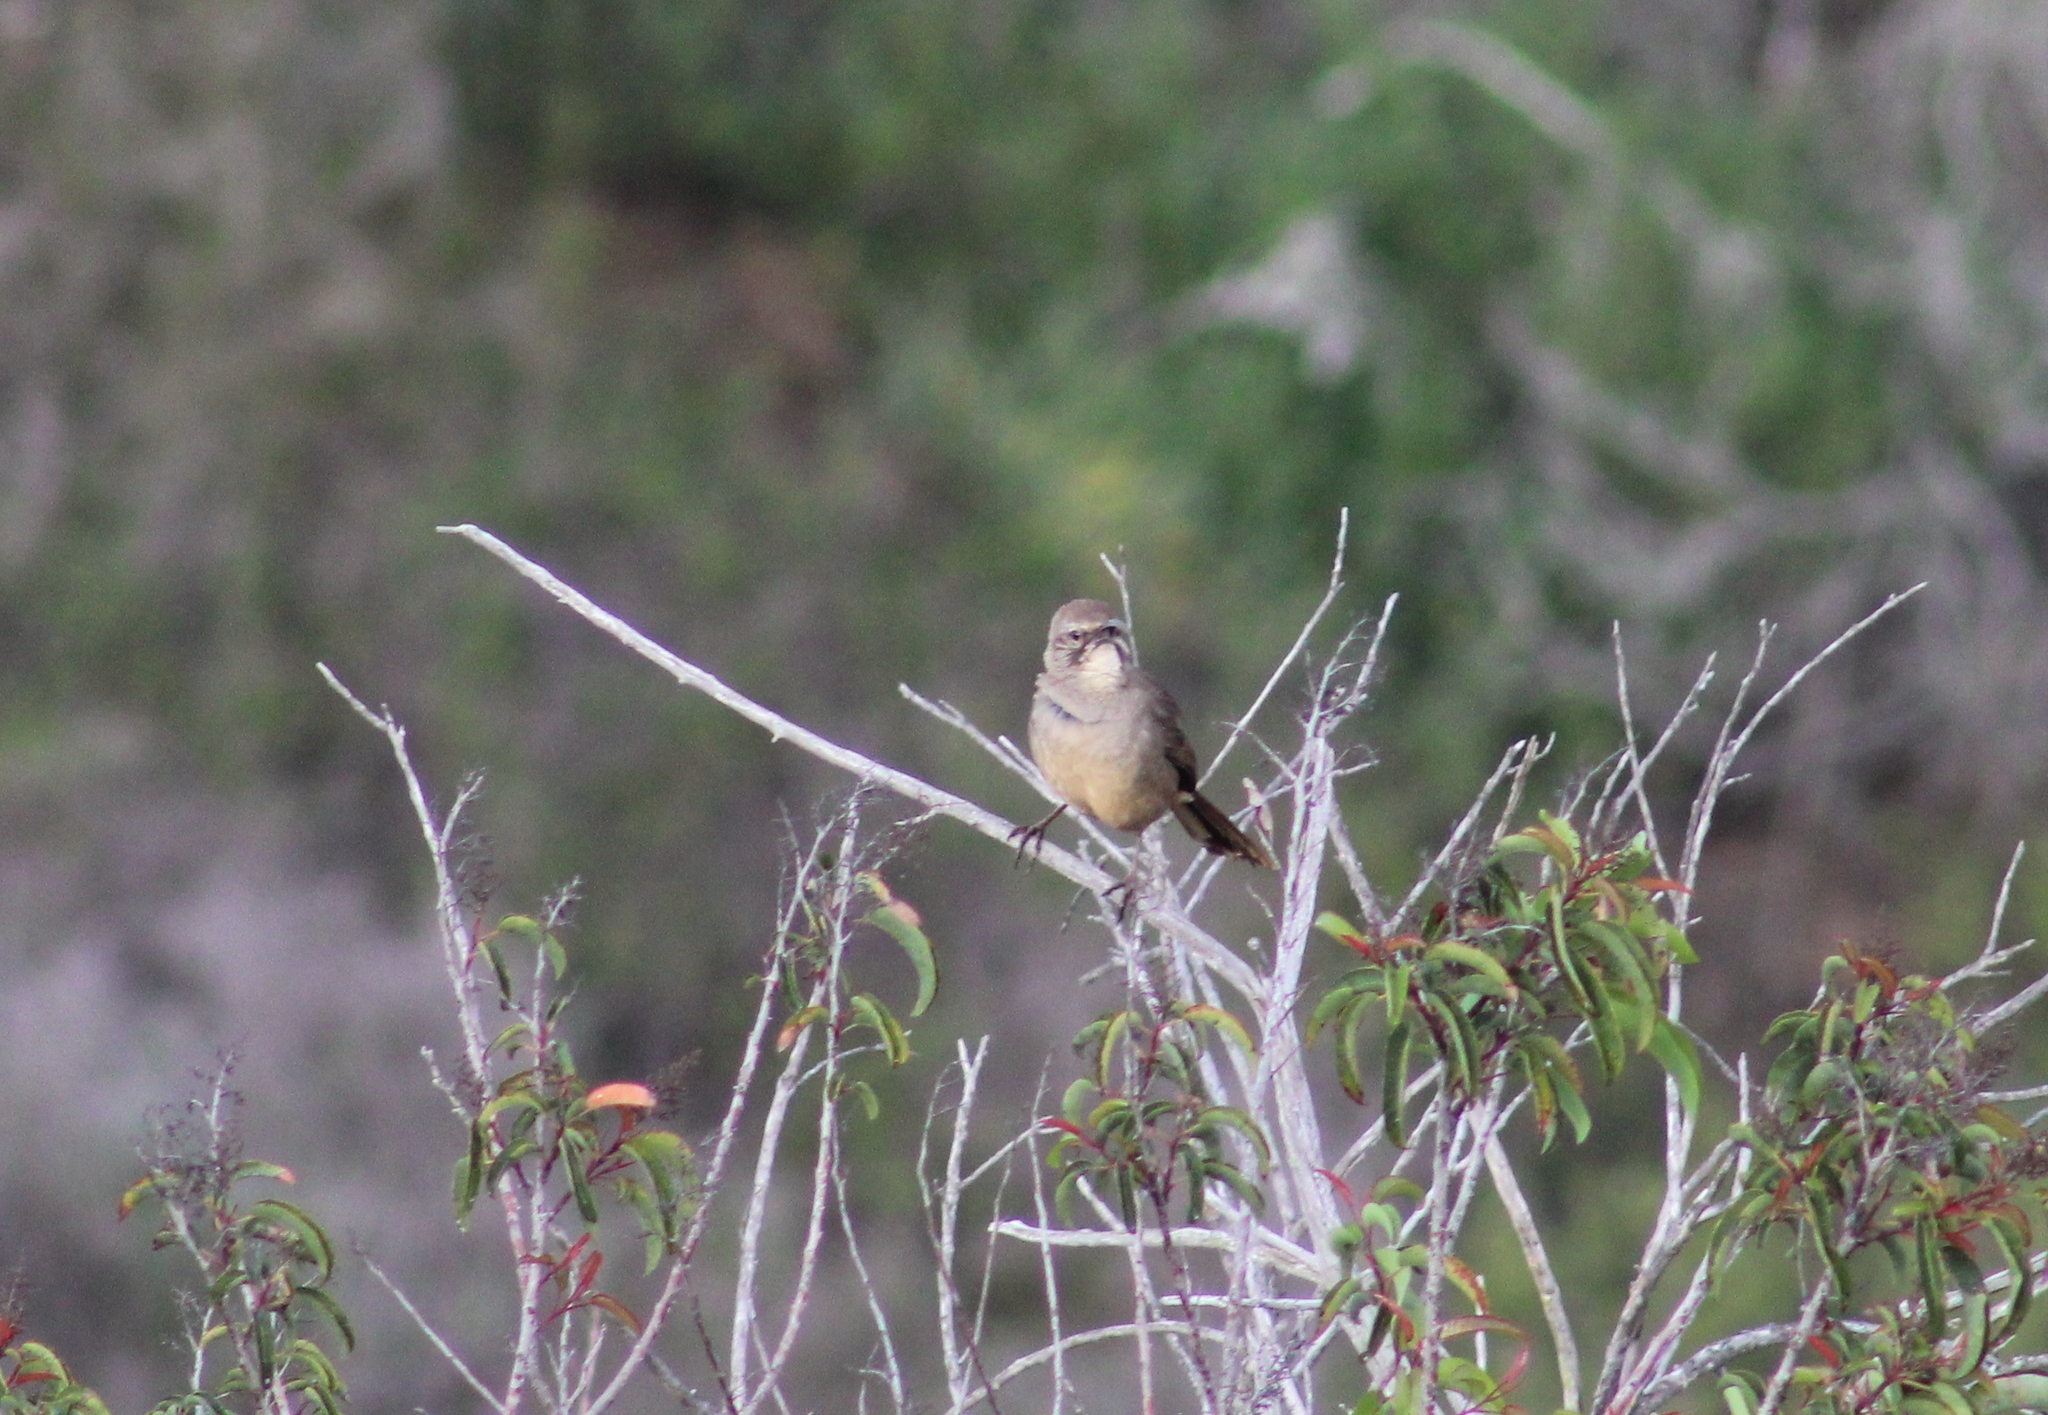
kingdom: Animalia
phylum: Chordata
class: Aves
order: Passeriformes
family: Mimidae
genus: Toxostoma
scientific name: Toxostoma redivivum
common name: California thrasher
